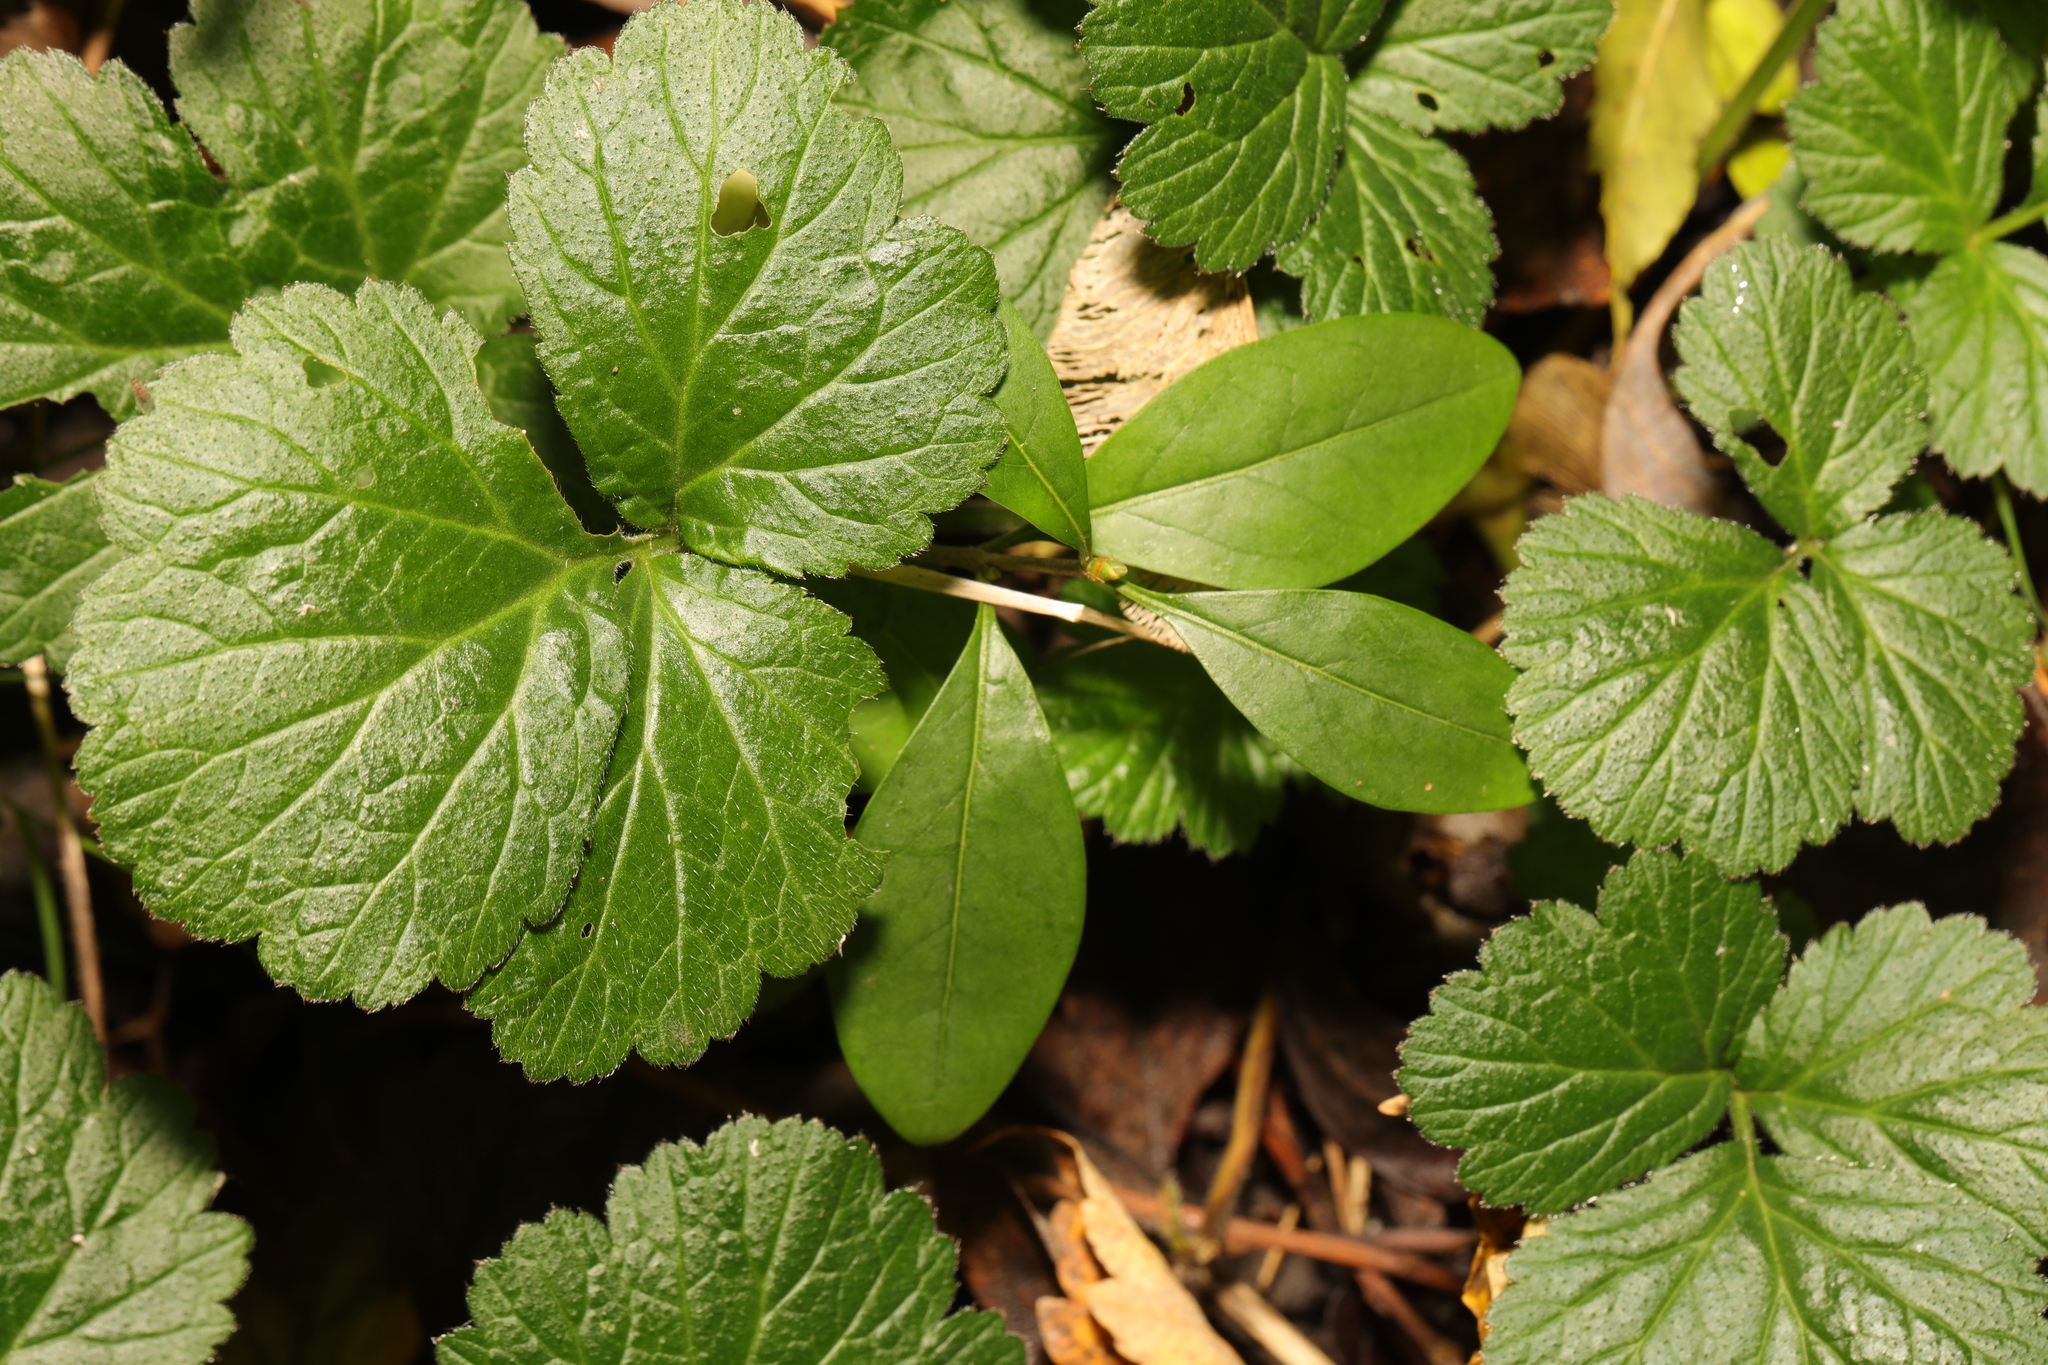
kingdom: Plantae
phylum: Tracheophyta
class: Magnoliopsida
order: Rosales
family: Rosaceae
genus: Geum
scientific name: Geum urbanum
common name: Wood avens
